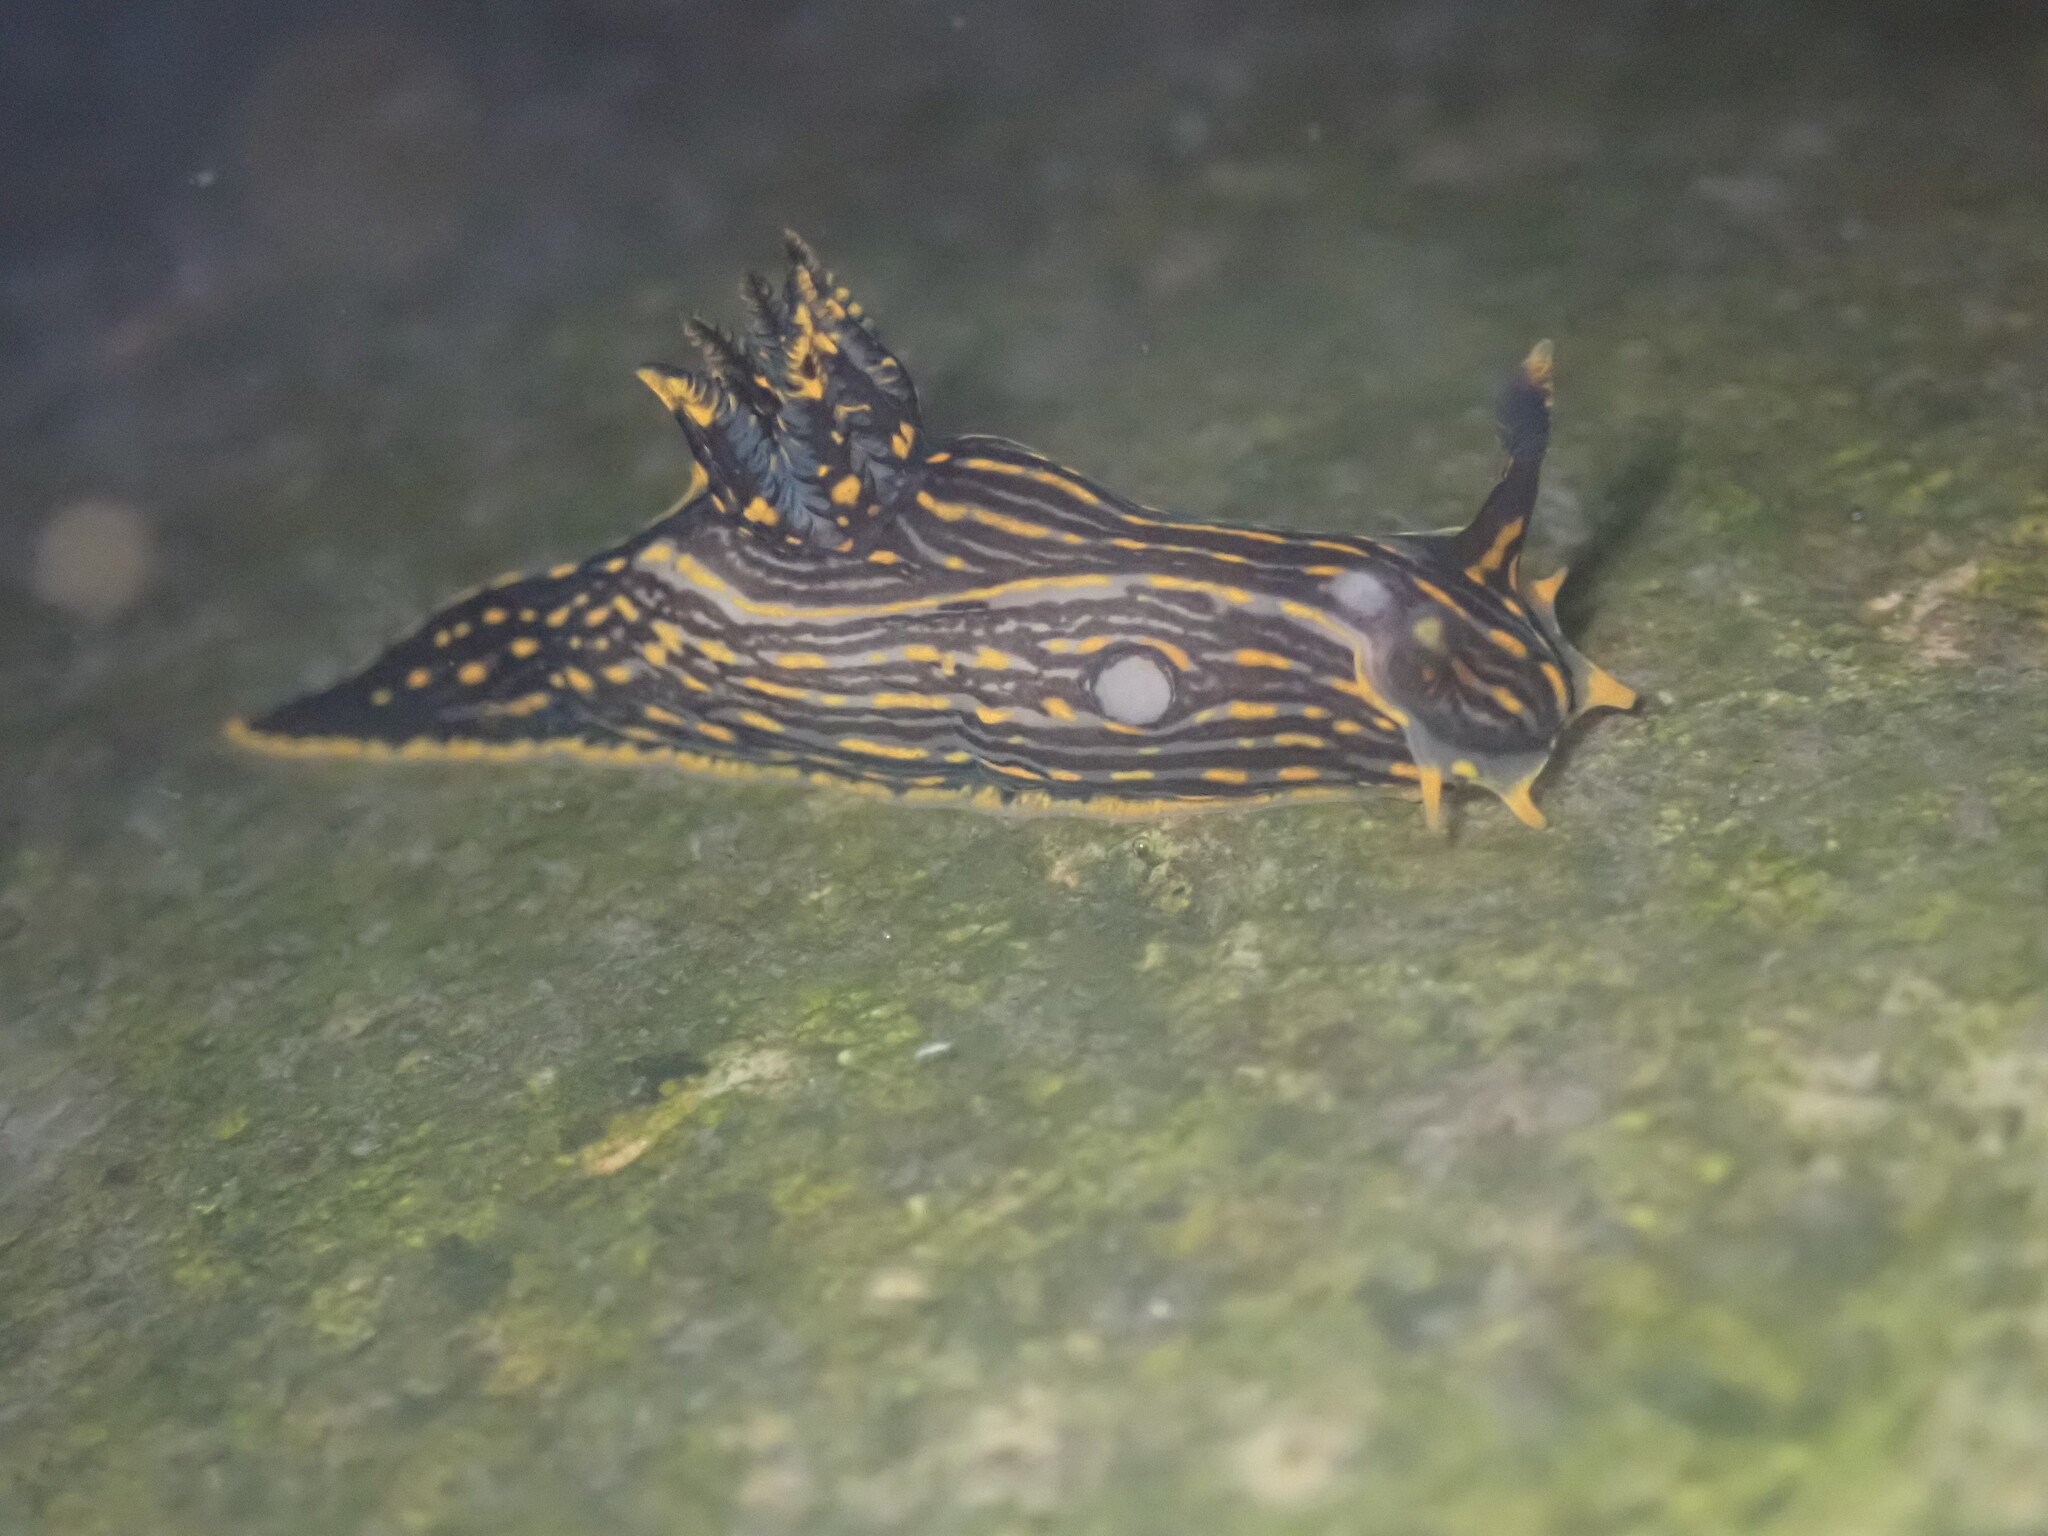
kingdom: Animalia
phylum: Mollusca
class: Gastropoda
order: Nudibranchia
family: Polyceridae
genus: Polycera
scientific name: Polycera atra
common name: Orange-spike polycera
